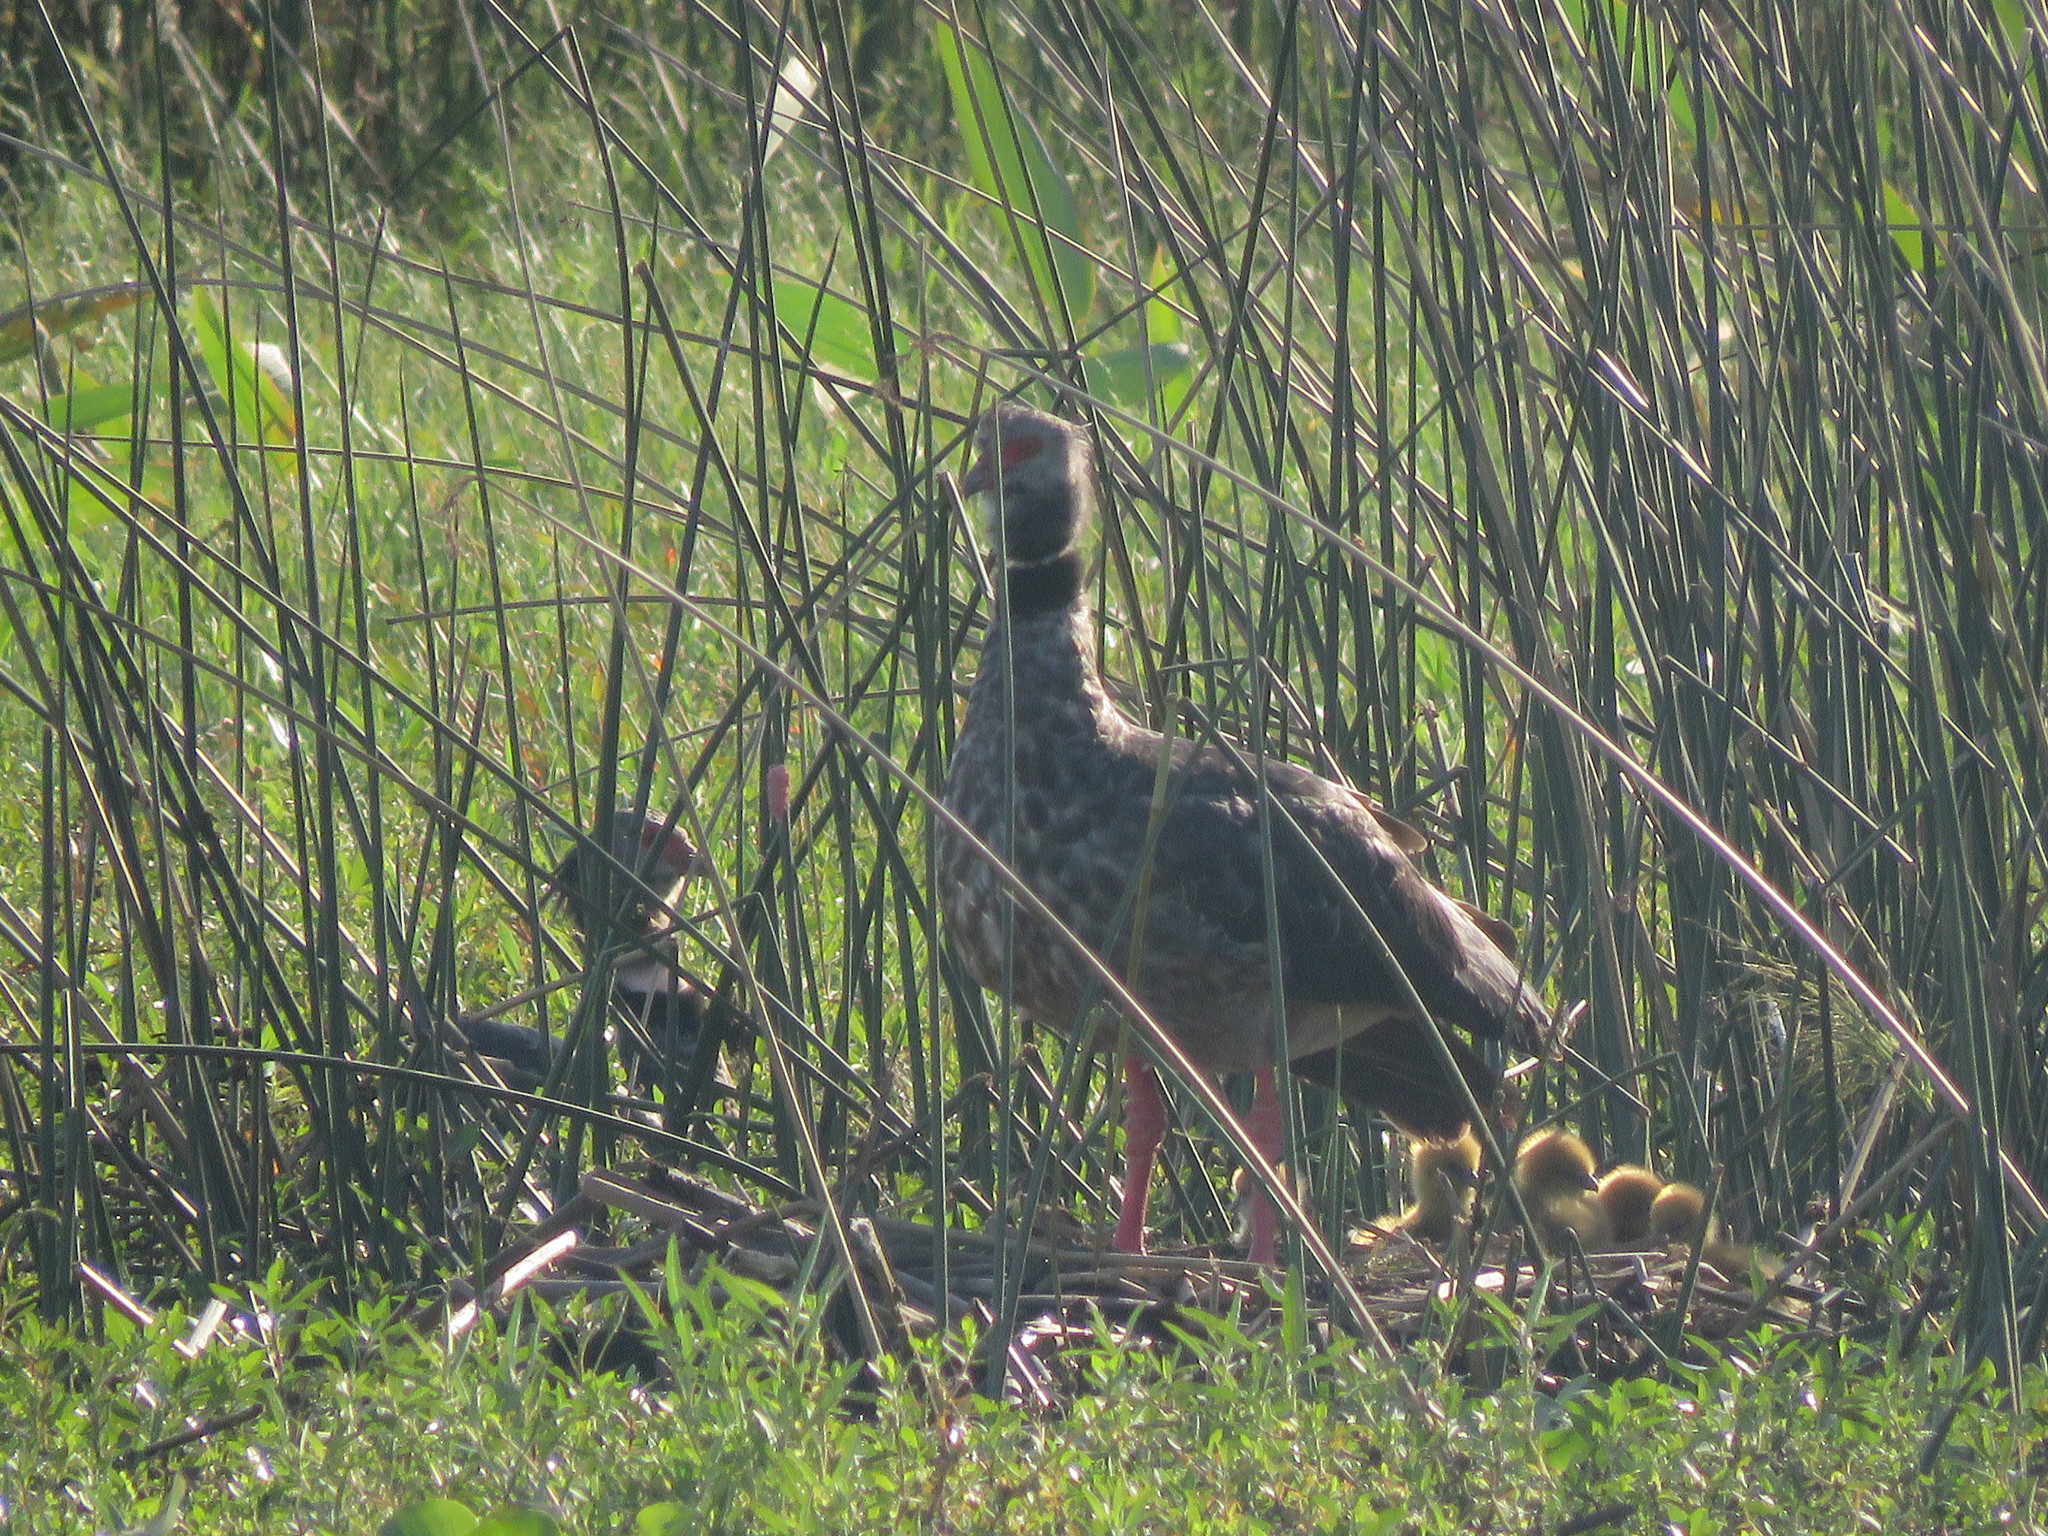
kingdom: Animalia
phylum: Chordata
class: Aves
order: Anseriformes
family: Anhimidae
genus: Chauna
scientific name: Chauna torquata
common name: Southern screamer
